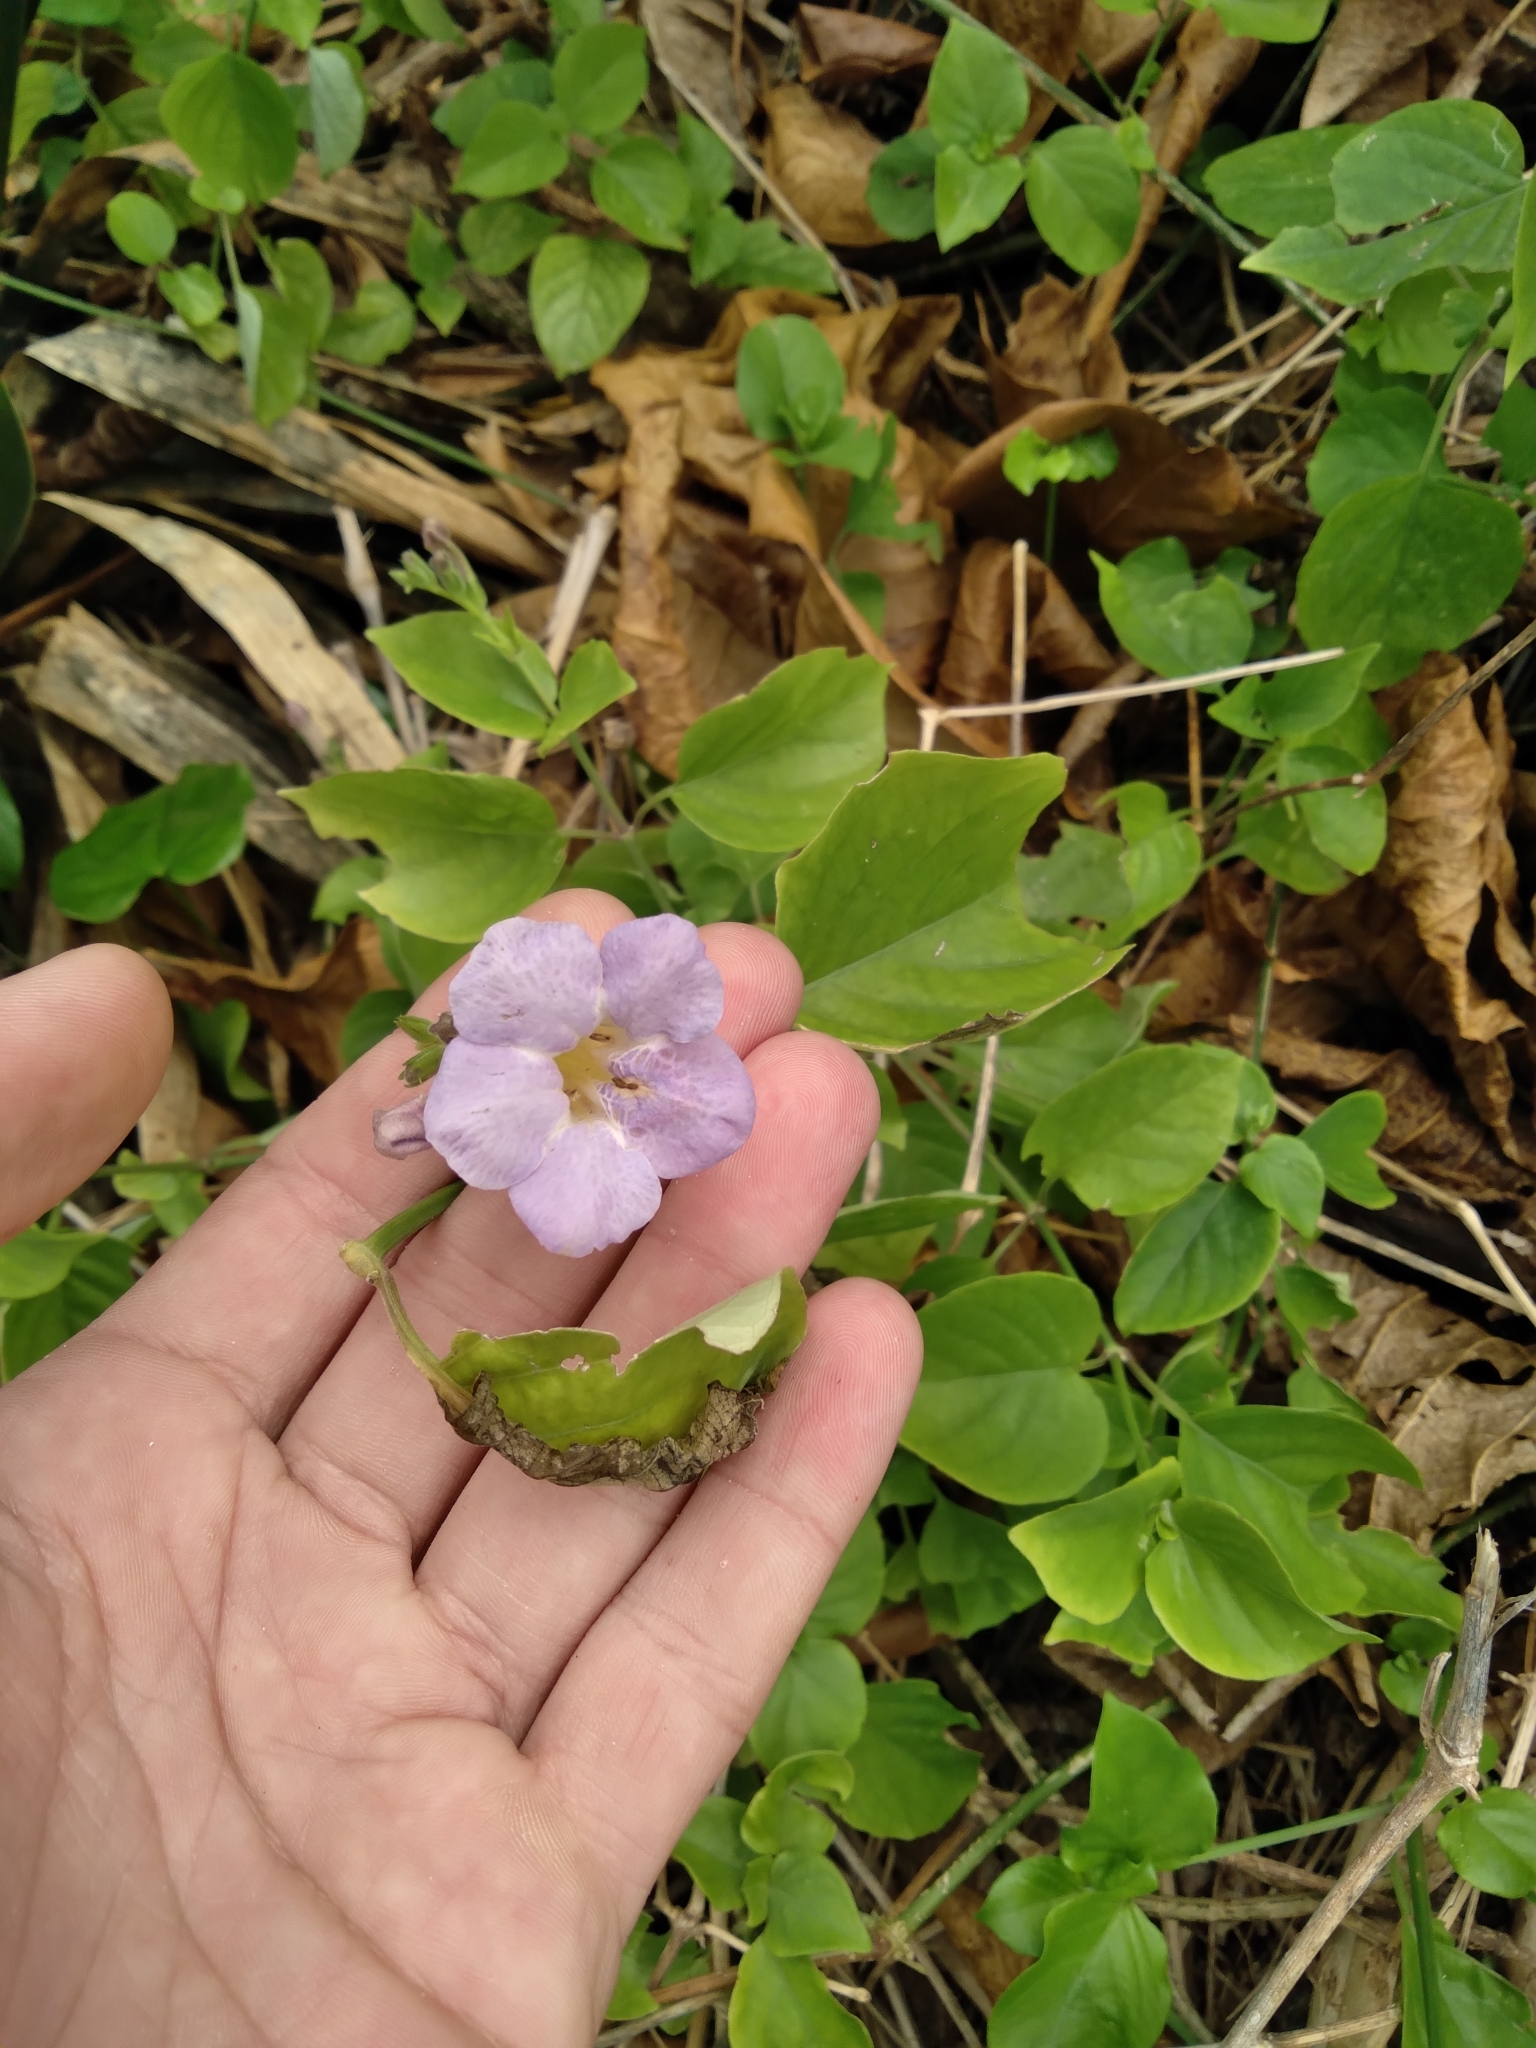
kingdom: Plantae
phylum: Tracheophyta
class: Magnoliopsida
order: Lamiales
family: Acanthaceae
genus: Asystasia
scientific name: Asystasia gangetica
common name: Chinese violet
